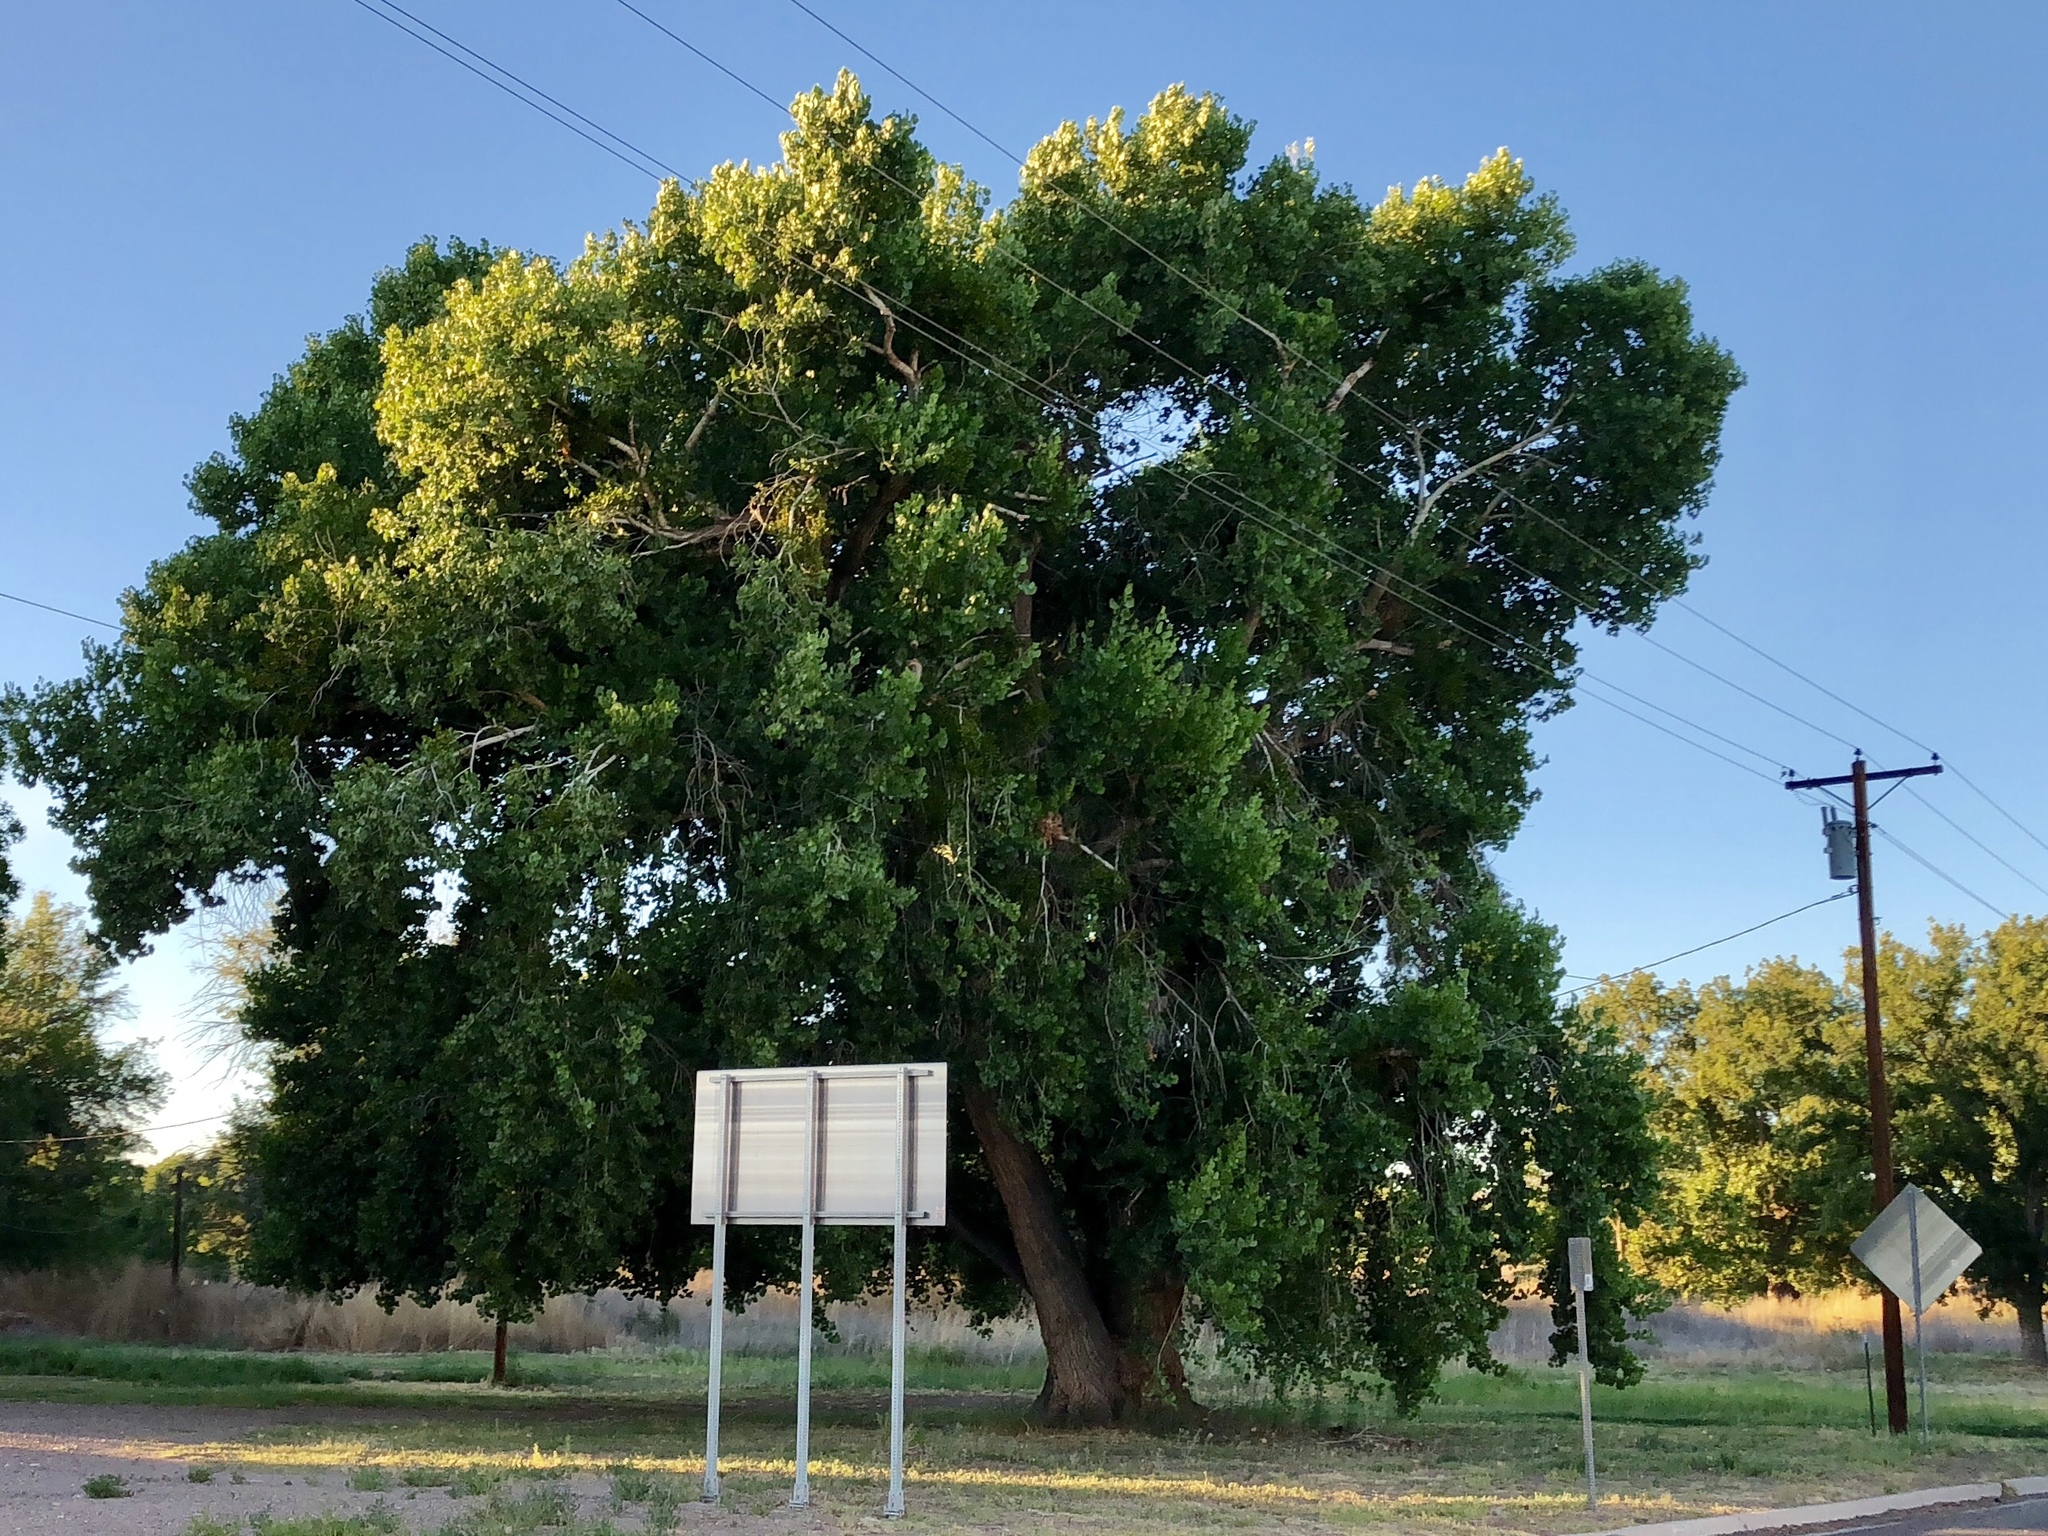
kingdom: Plantae
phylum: Tracheophyta
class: Magnoliopsida
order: Malpighiales
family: Salicaceae
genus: Populus
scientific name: Populus fremontii
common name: Fremont's cottonwood
